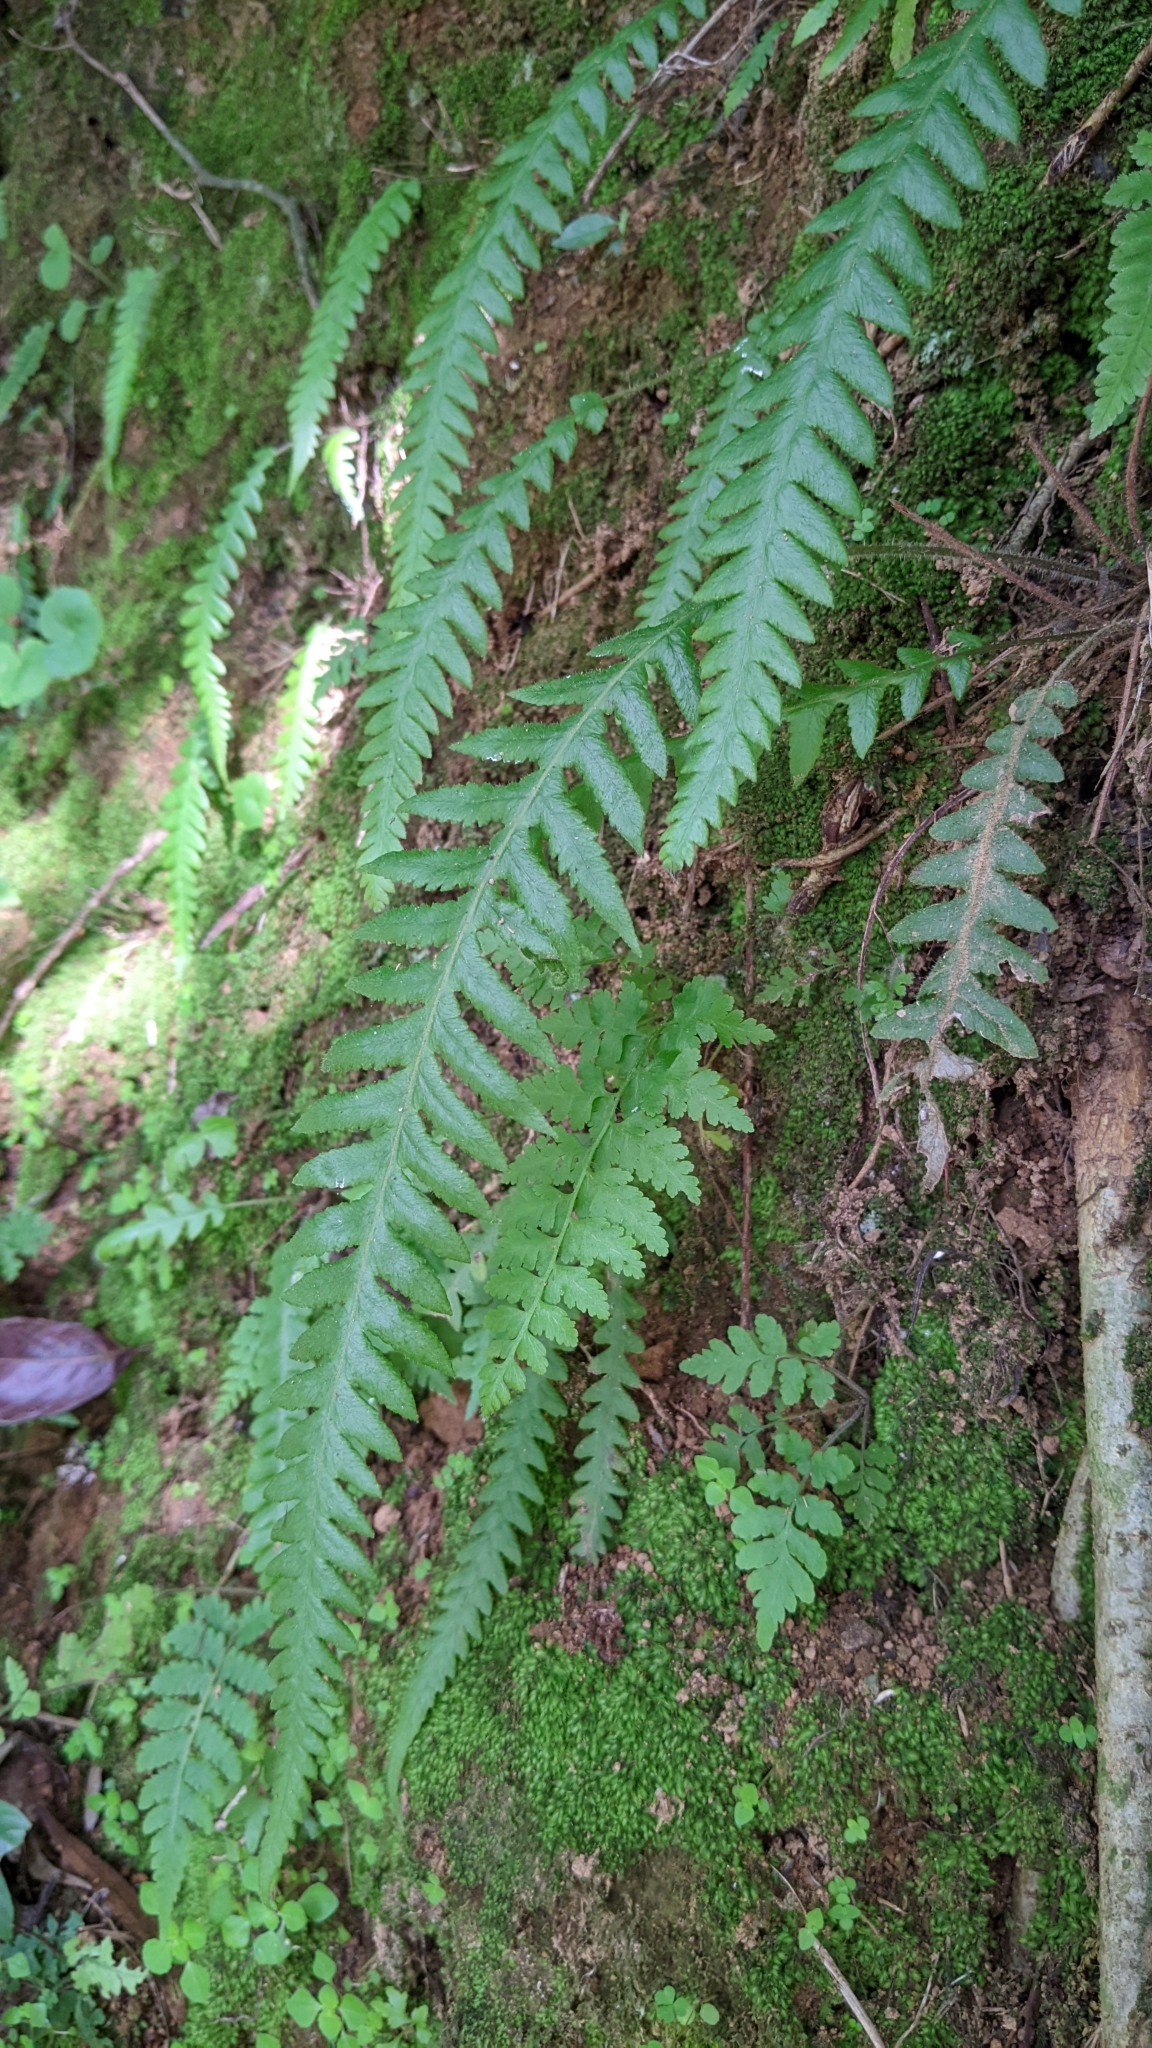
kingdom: Plantae
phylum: Tracheophyta
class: Polypodiopsida
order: Polypodiales
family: Thelypteridaceae
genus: Phegopteris
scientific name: Phegopteris decursive-pinnata
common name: Japanese beech fern
